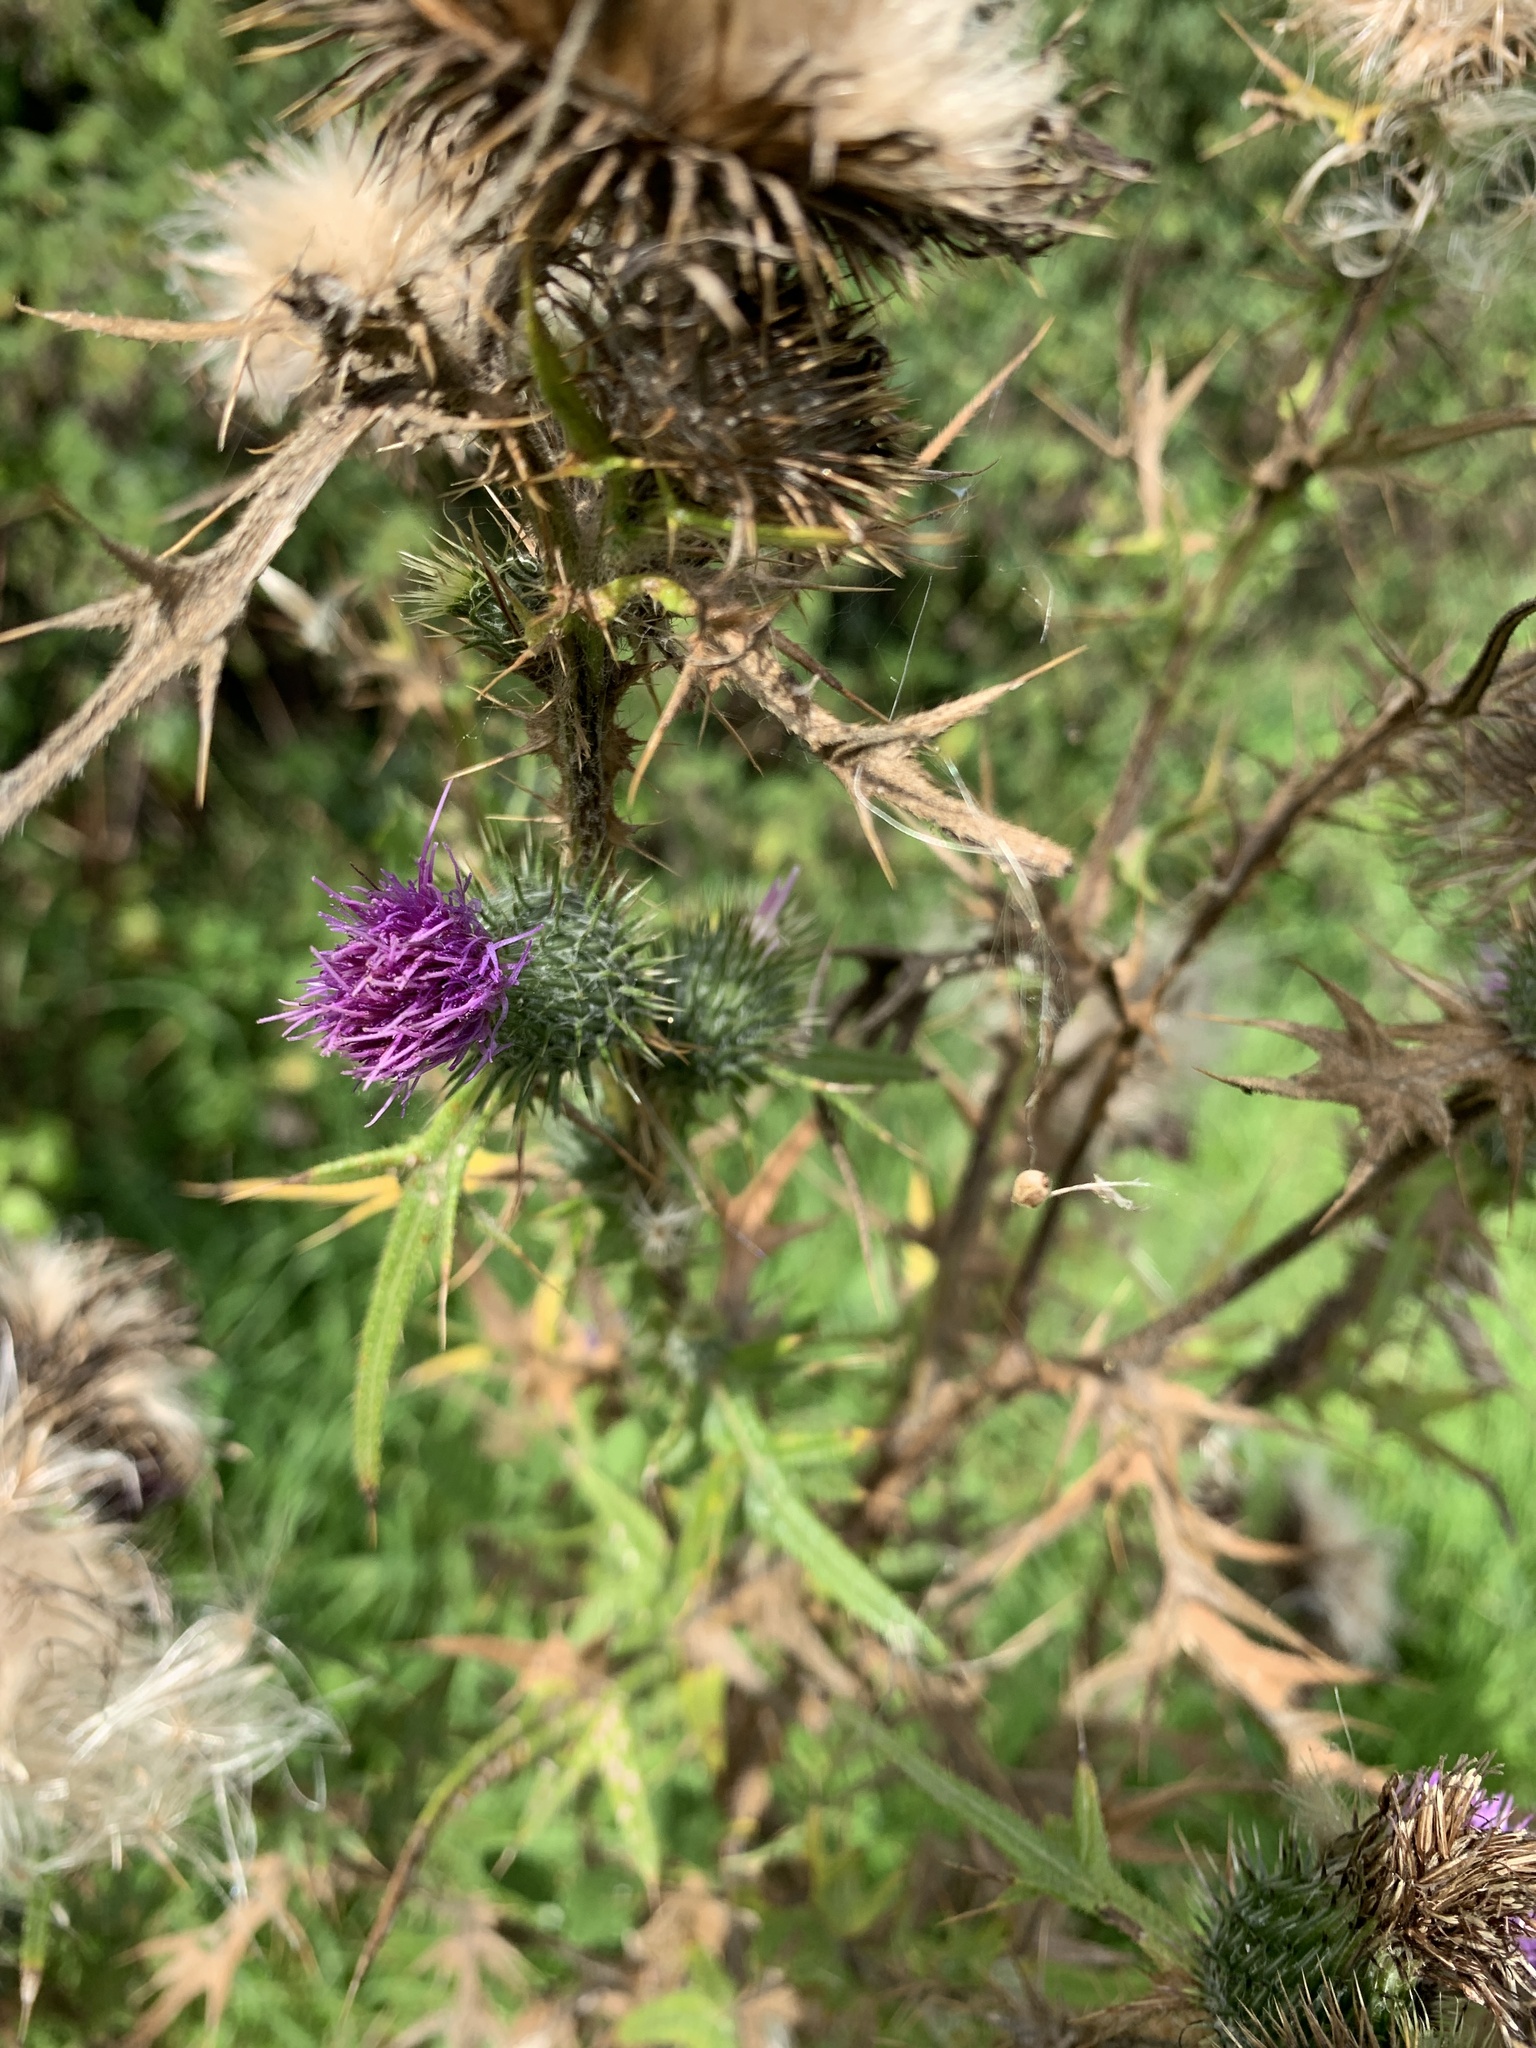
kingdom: Plantae
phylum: Tracheophyta
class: Magnoliopsida
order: Asterales
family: Asteraceae
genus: Cirsium
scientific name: Cirsium vulgare
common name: Bull thistle
